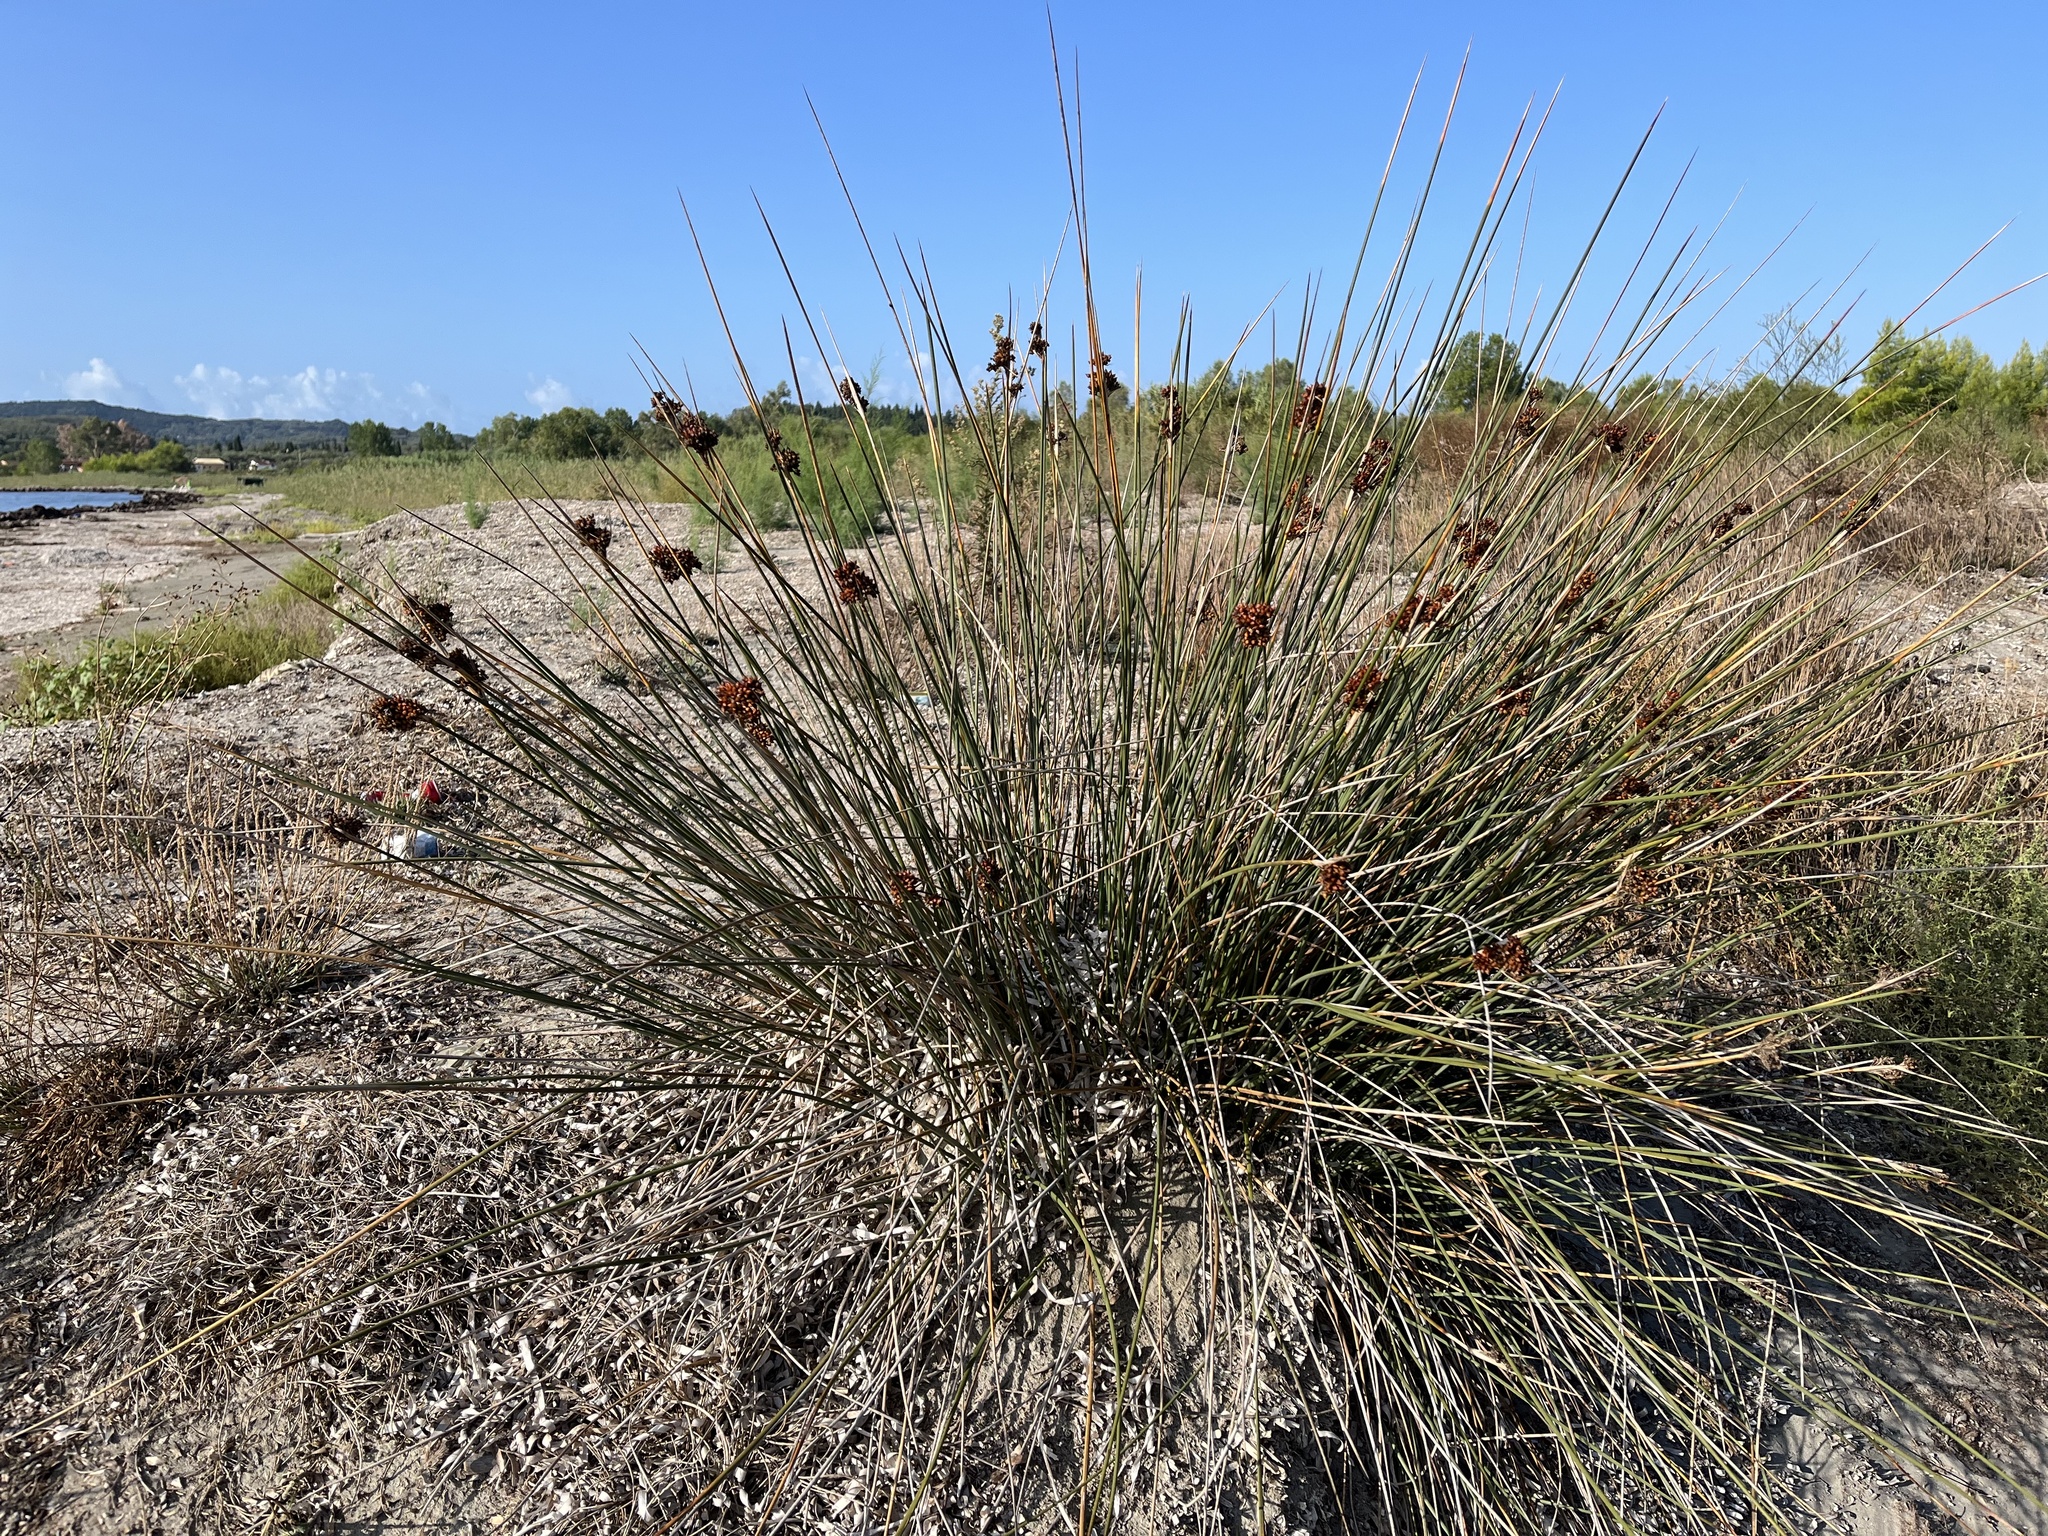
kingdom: Plantae
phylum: Tracheophyta
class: Liliopsida
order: Poales
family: Juncaceae
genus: Juncus
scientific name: Juncus acutus
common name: Sharp rush
